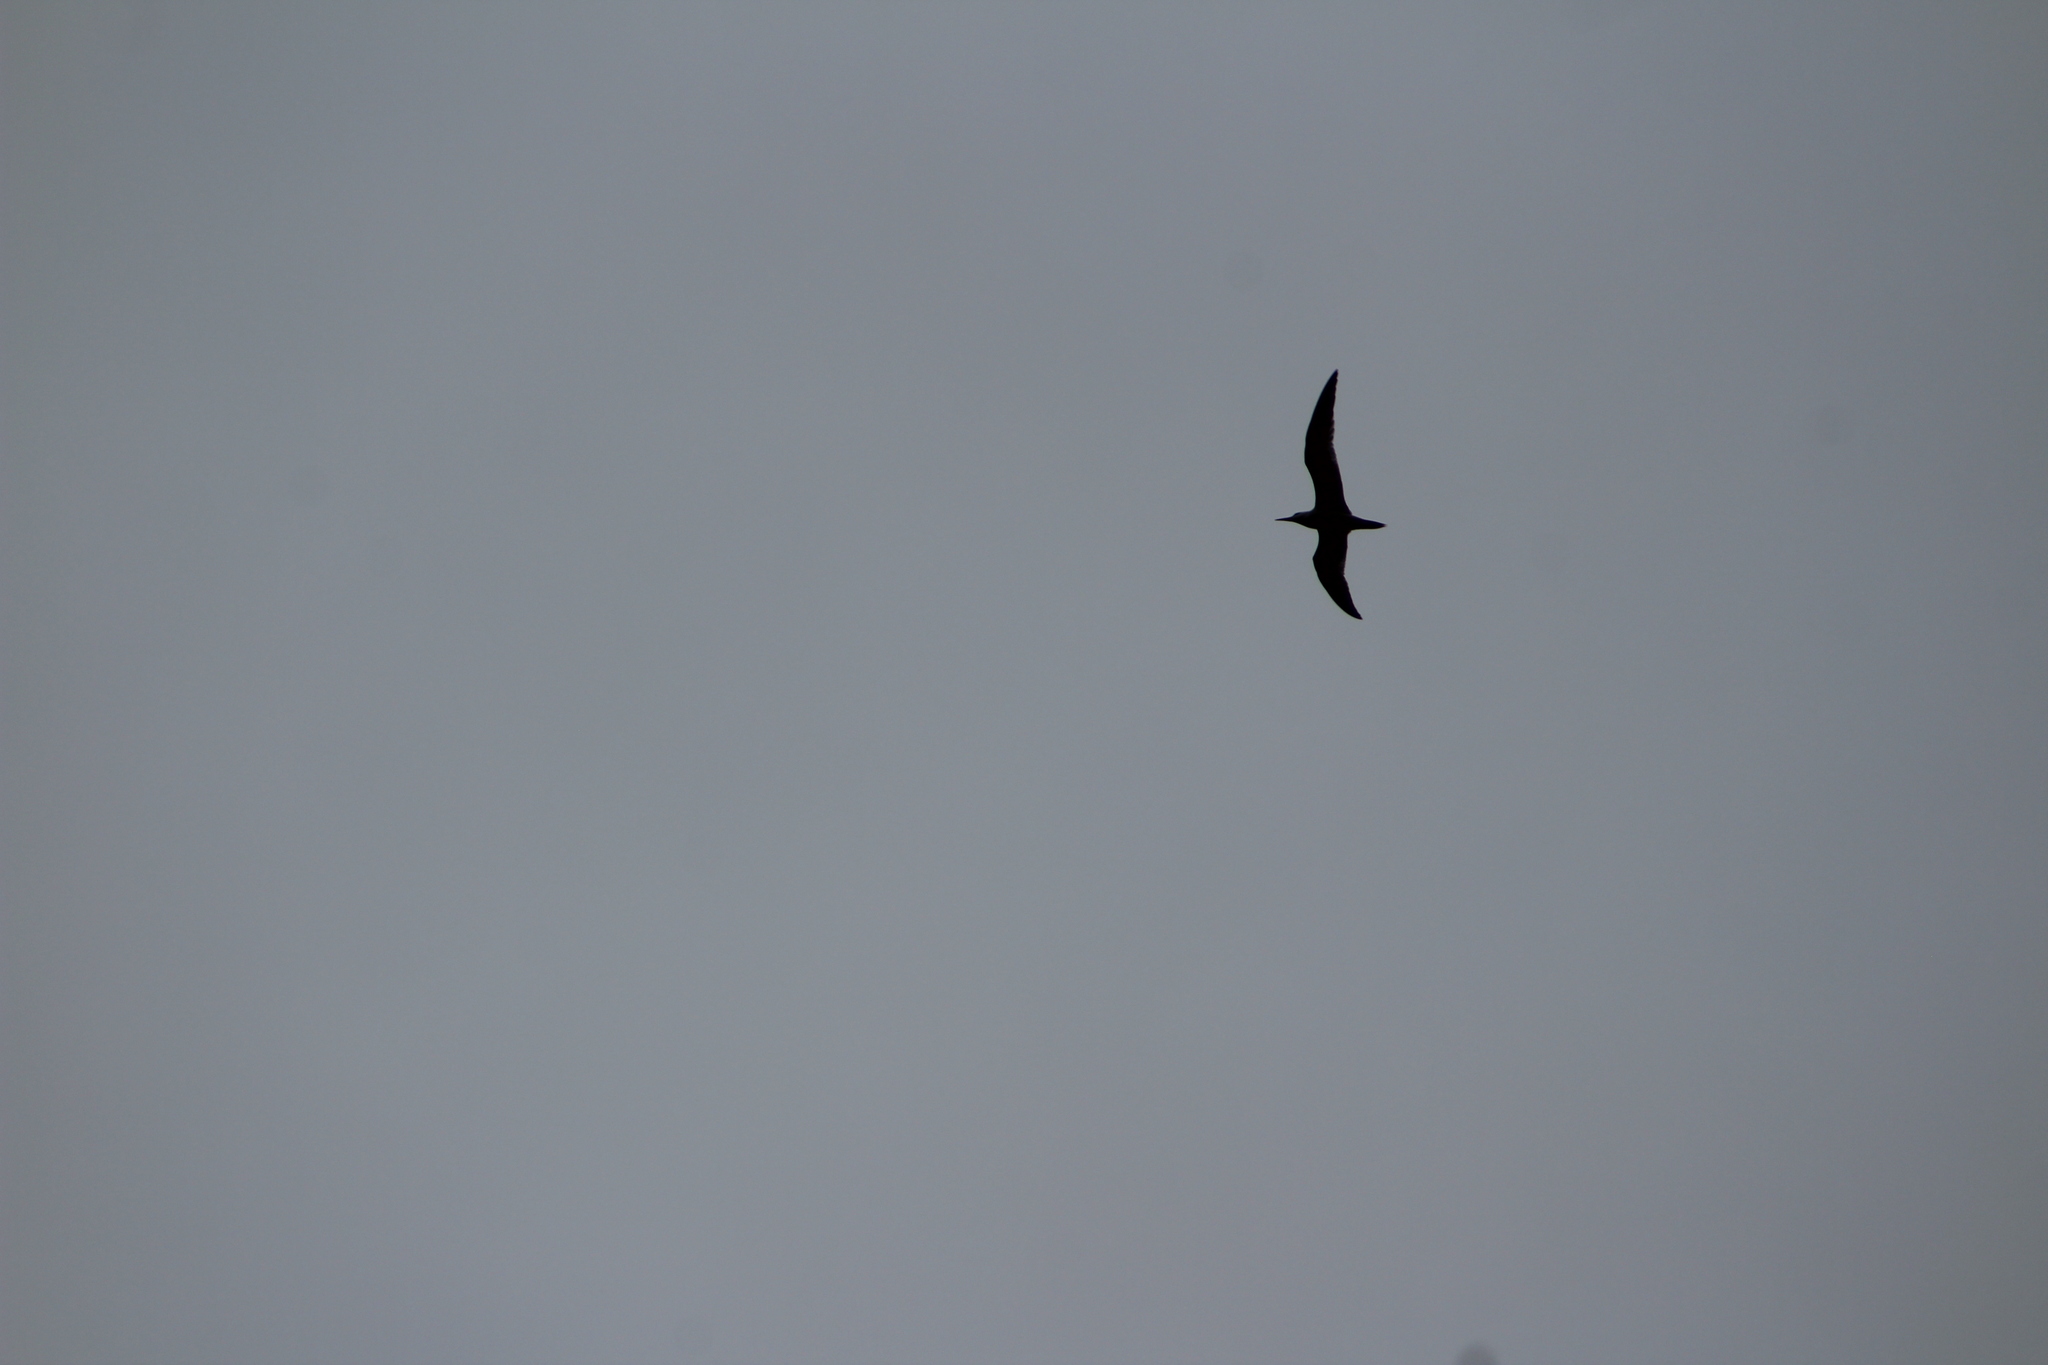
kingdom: Animalia
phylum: Chordata
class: Aves
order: Charadriiformes
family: Laridae
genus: Hydroprogne
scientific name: Hydroprogne caspia
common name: Caspian tern
